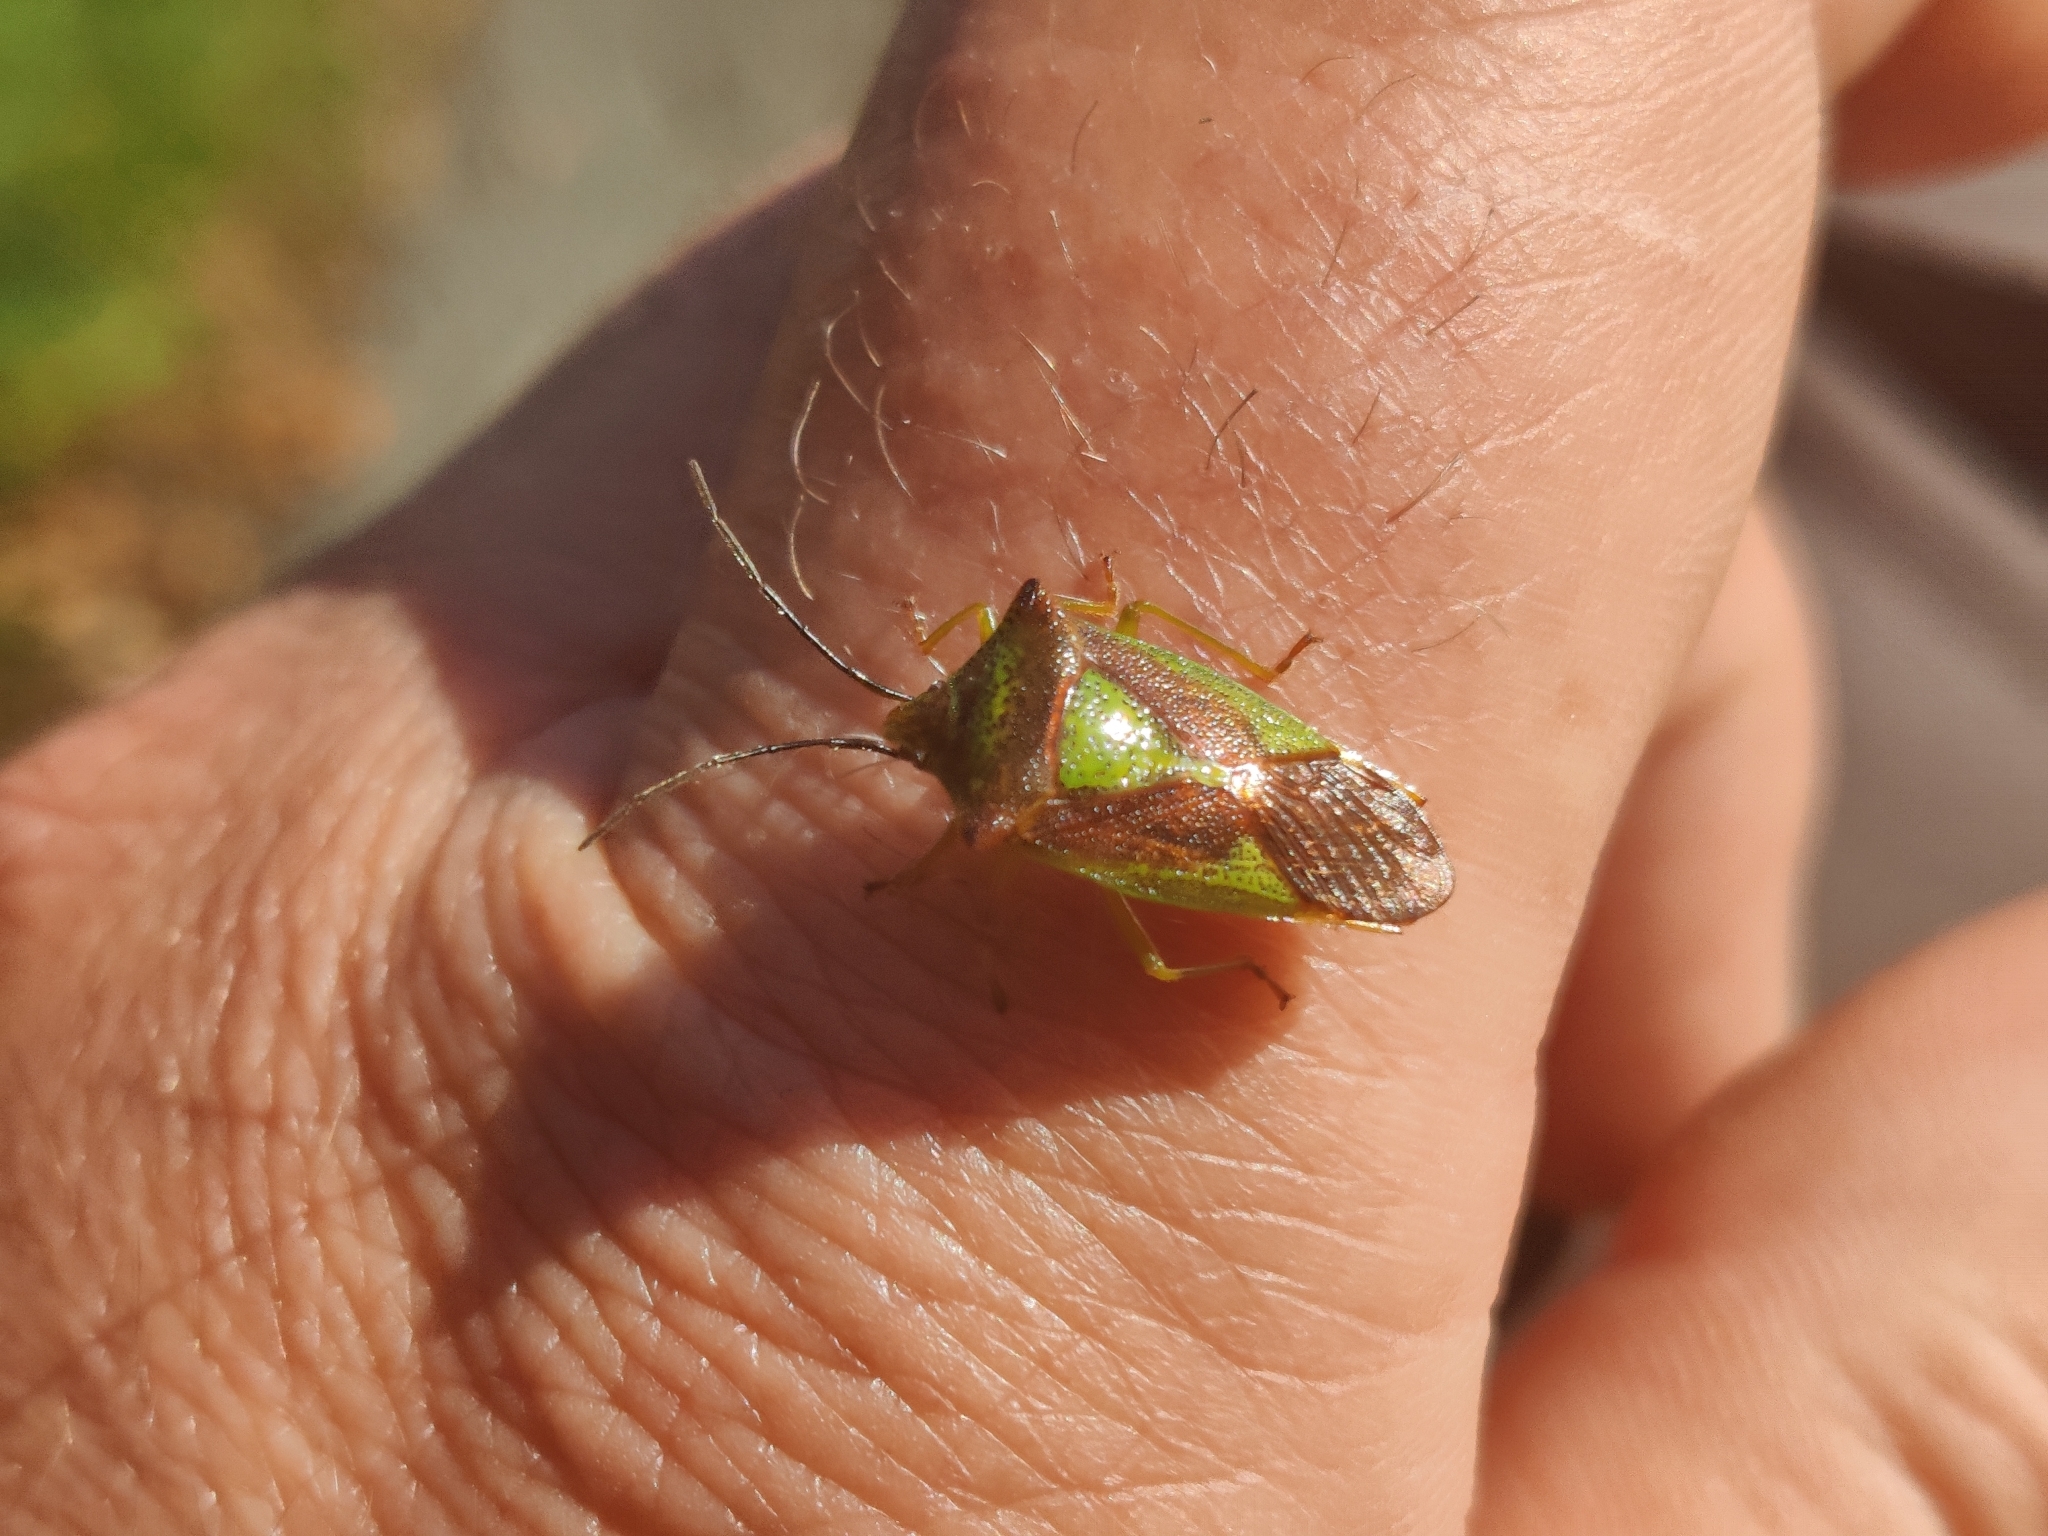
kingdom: Animalia
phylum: Arthropoda
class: Insecta
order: Hemiptera
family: Acanthosomatidae
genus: Acanthosoma
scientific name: Acanthosoma haemorrhoidale
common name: Hawthorn shieldbug
